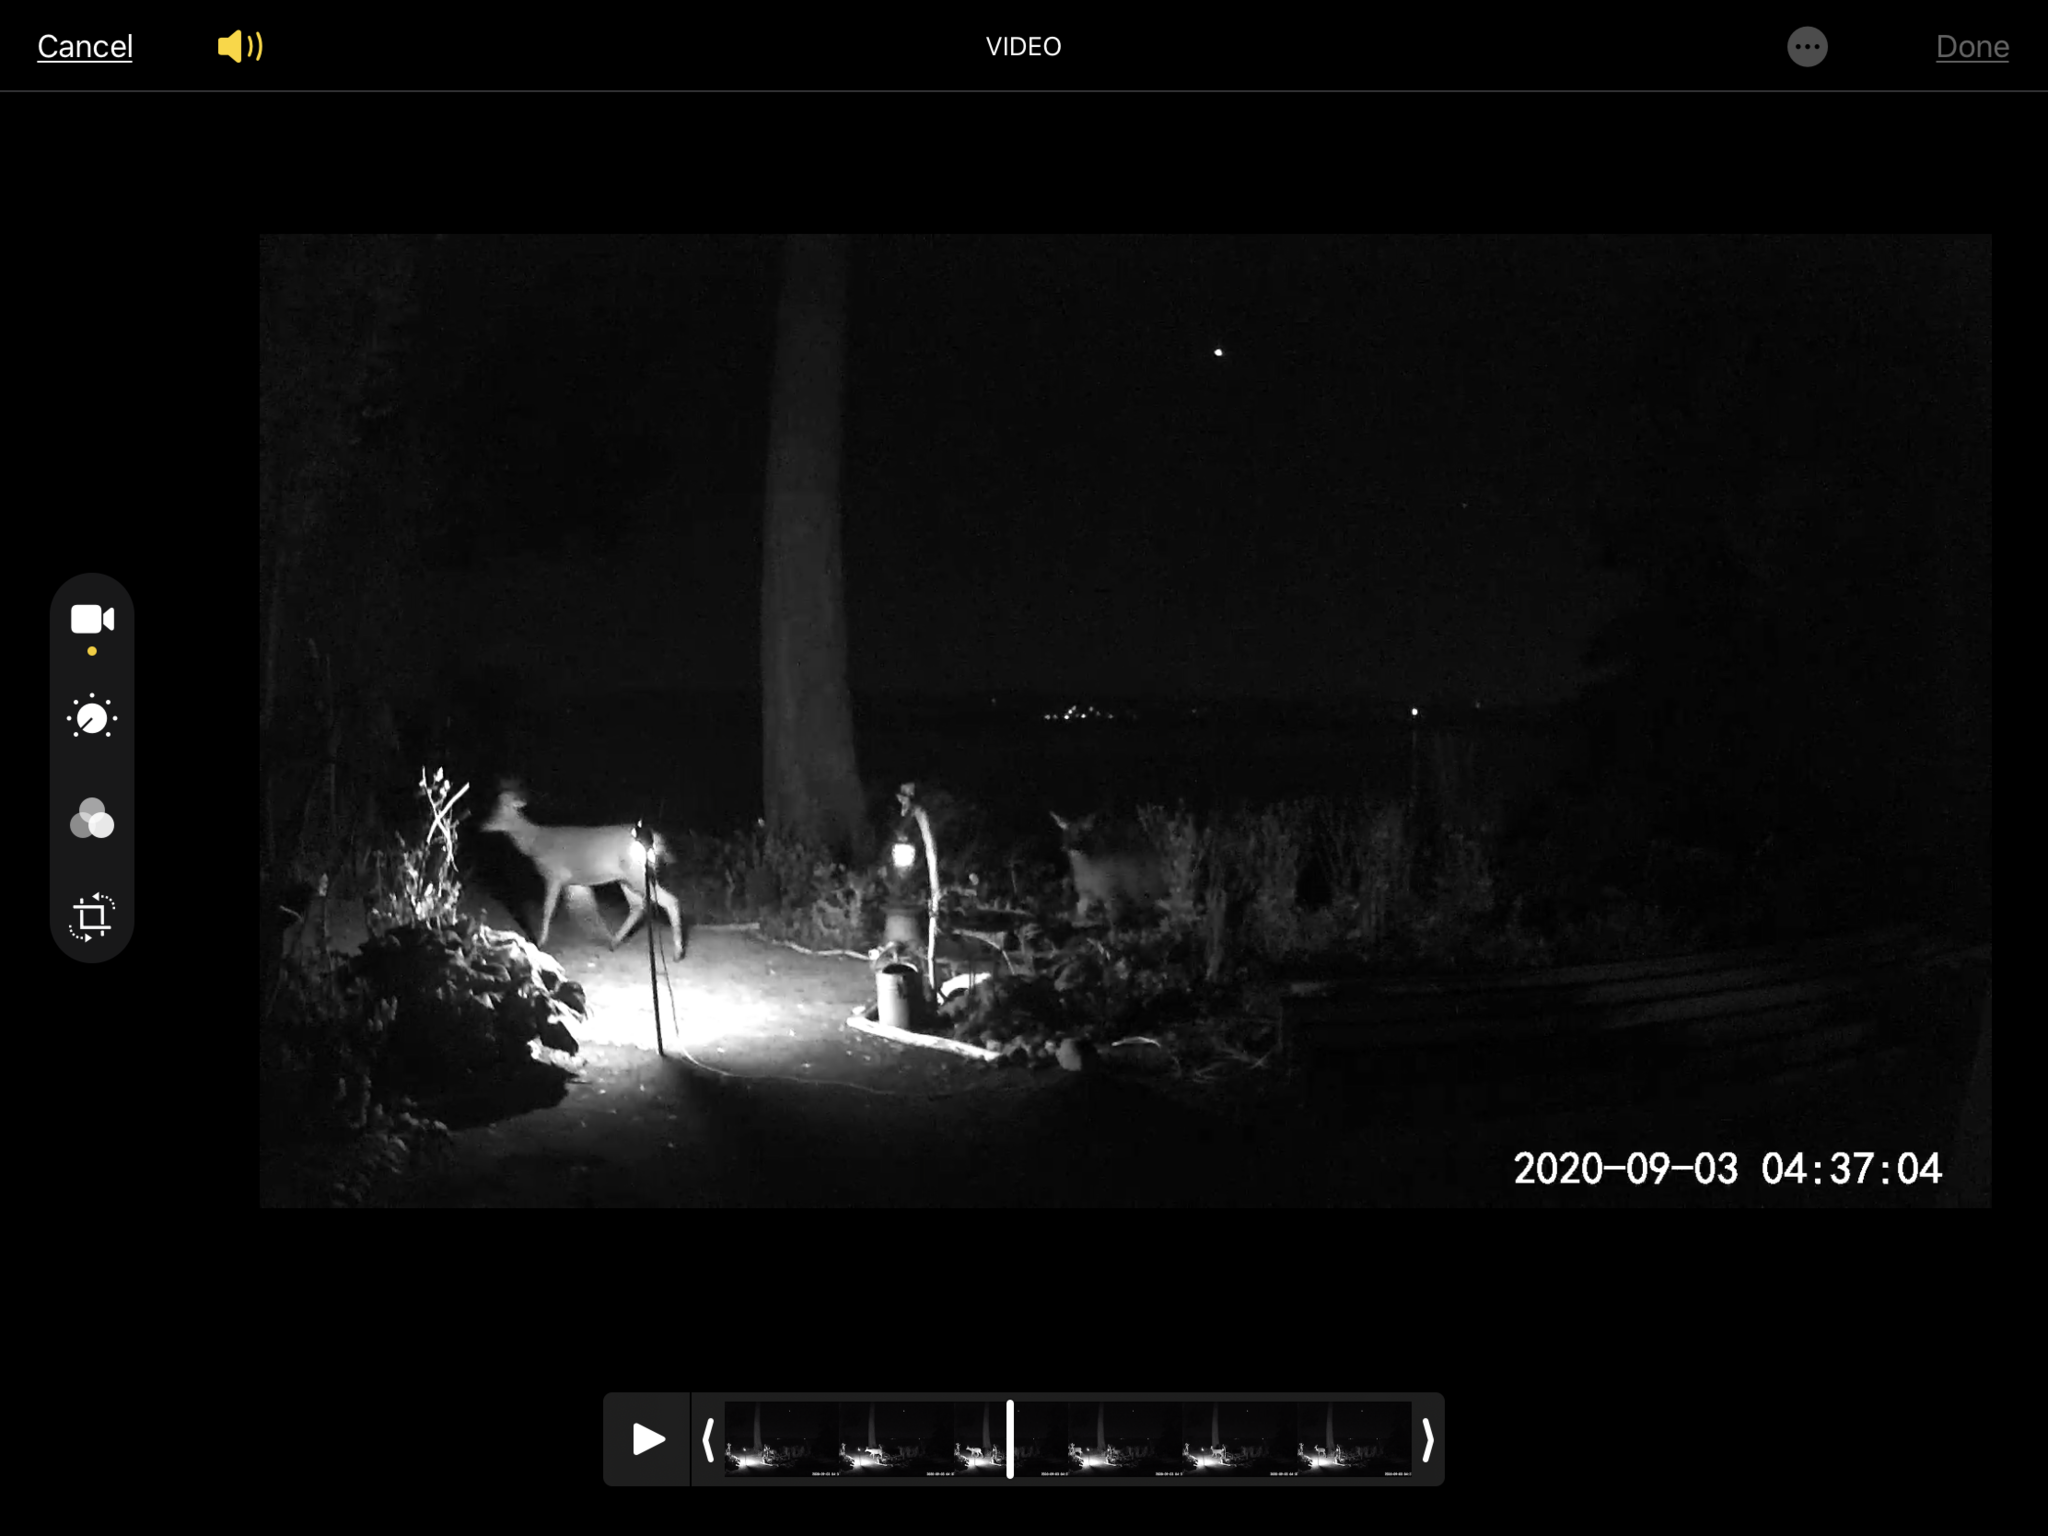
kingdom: Animalia
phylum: Chordata
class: Mammalia
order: Artiodactyla
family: Cervidae
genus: Odocoileus
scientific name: Odocoileus hemionus
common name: Mule deer
